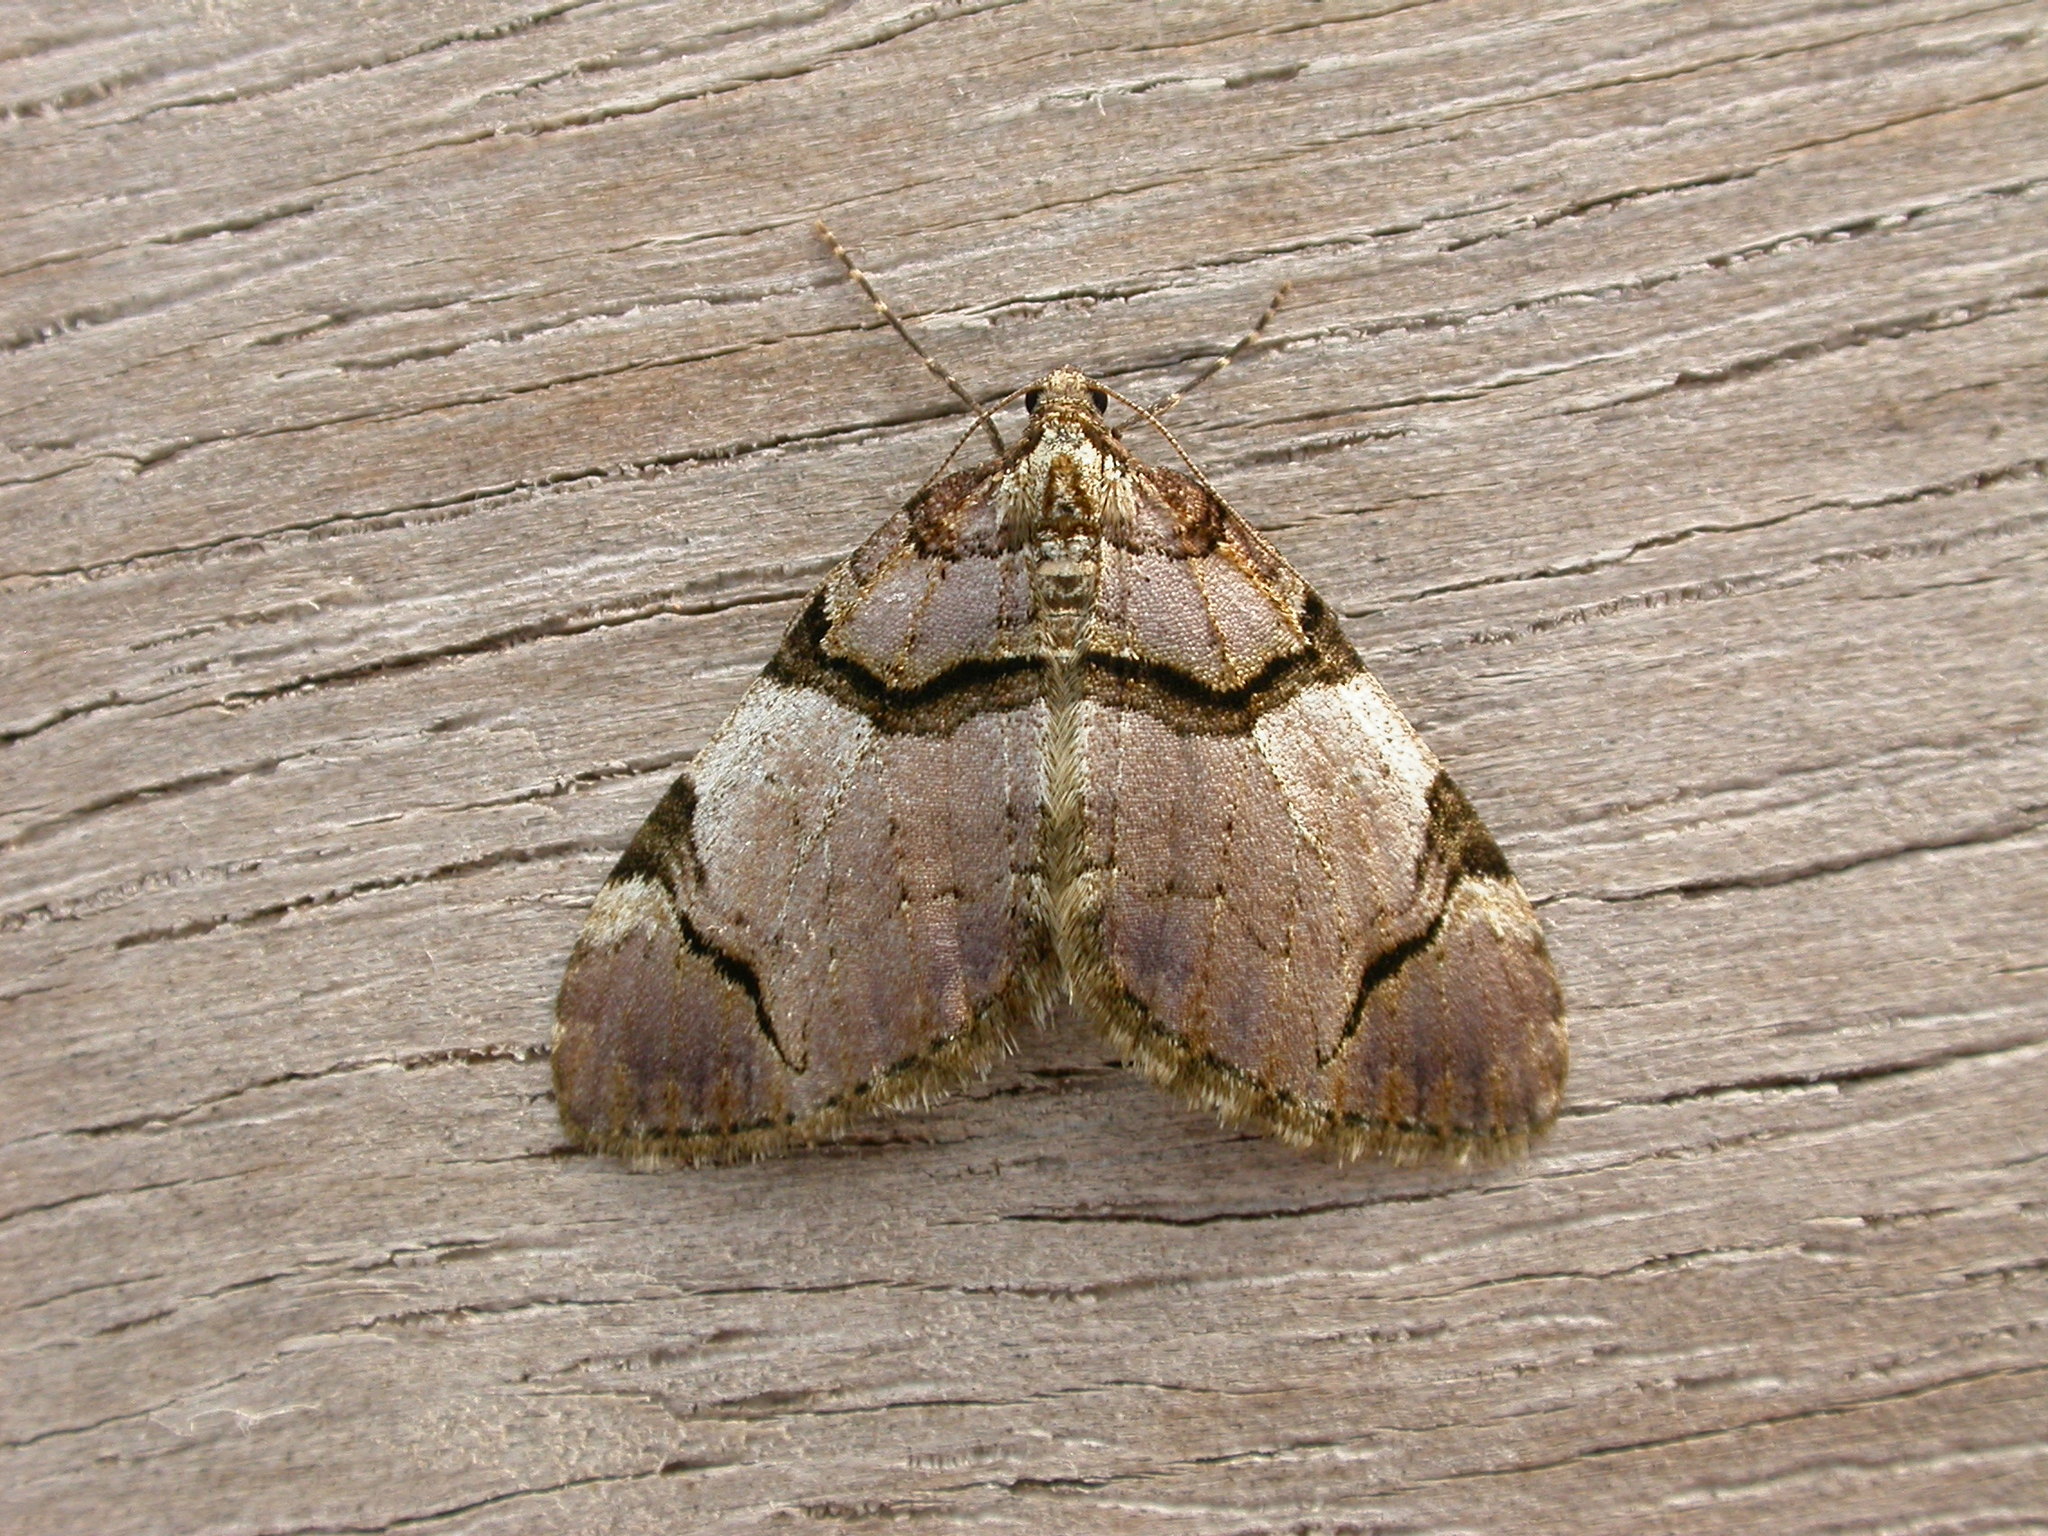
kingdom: Animalia
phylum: Arthropoda
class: Insecta
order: Lepidoptera
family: Geometridae
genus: Anticlea
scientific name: Anticlea derivata
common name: Streamer
